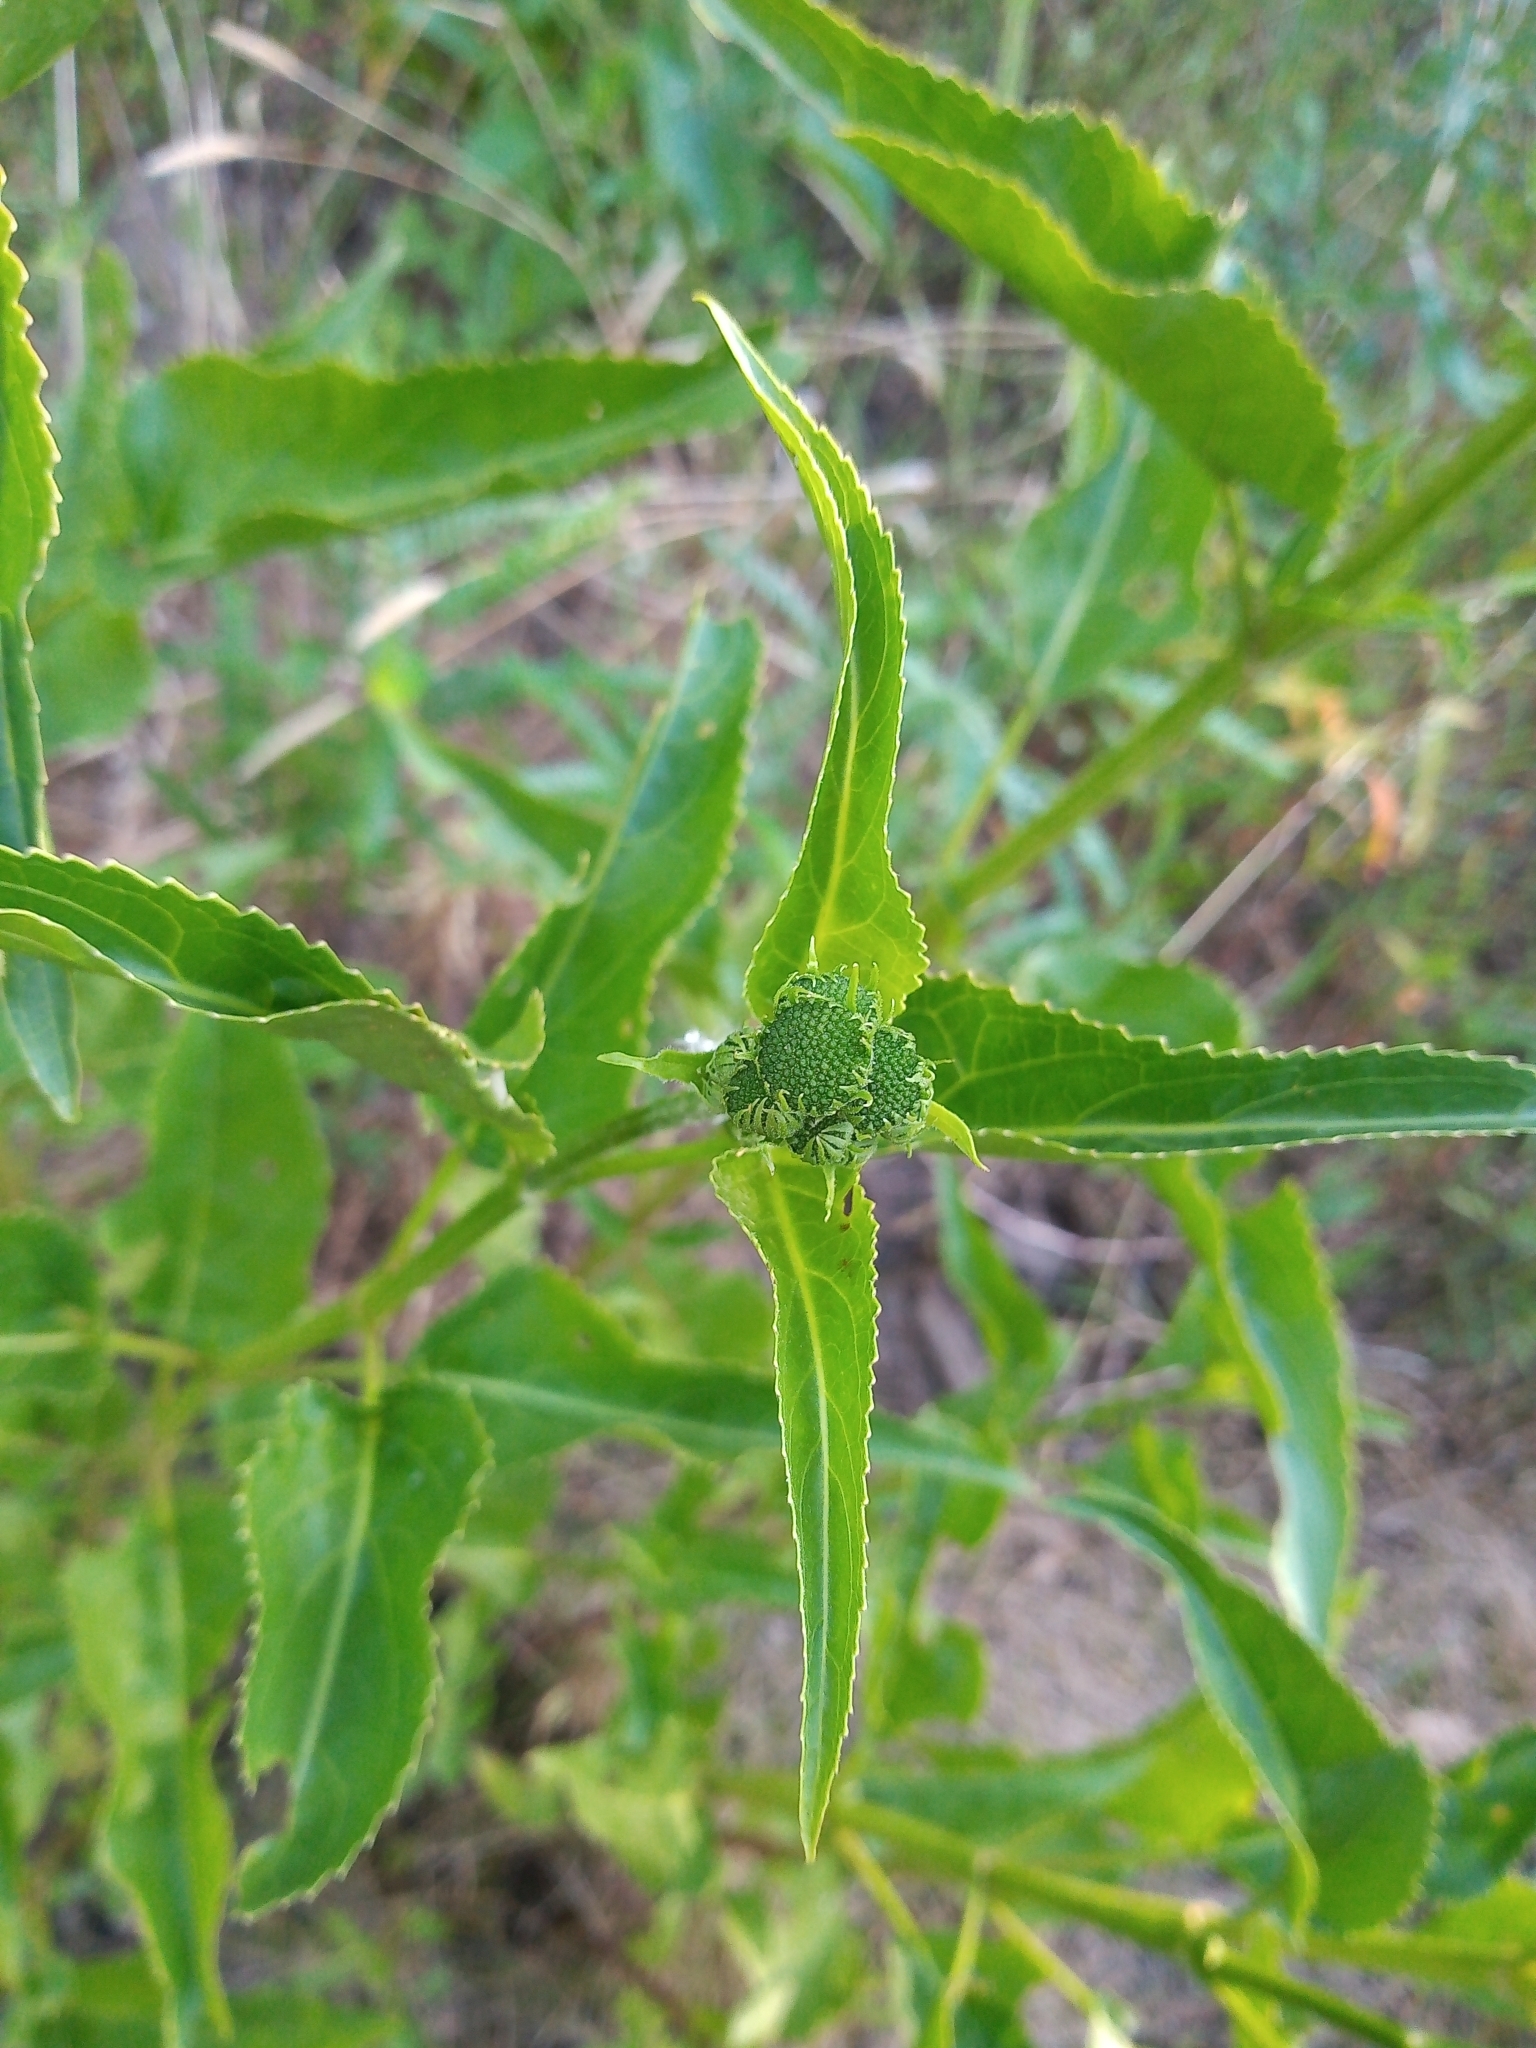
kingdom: Plantae
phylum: Tracheophyta
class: Magnoliopsida
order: Asterales
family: Asteraceae
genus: Gymnocoronis
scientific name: Gymnocoronis spilanthoides
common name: Senegal teaplant
